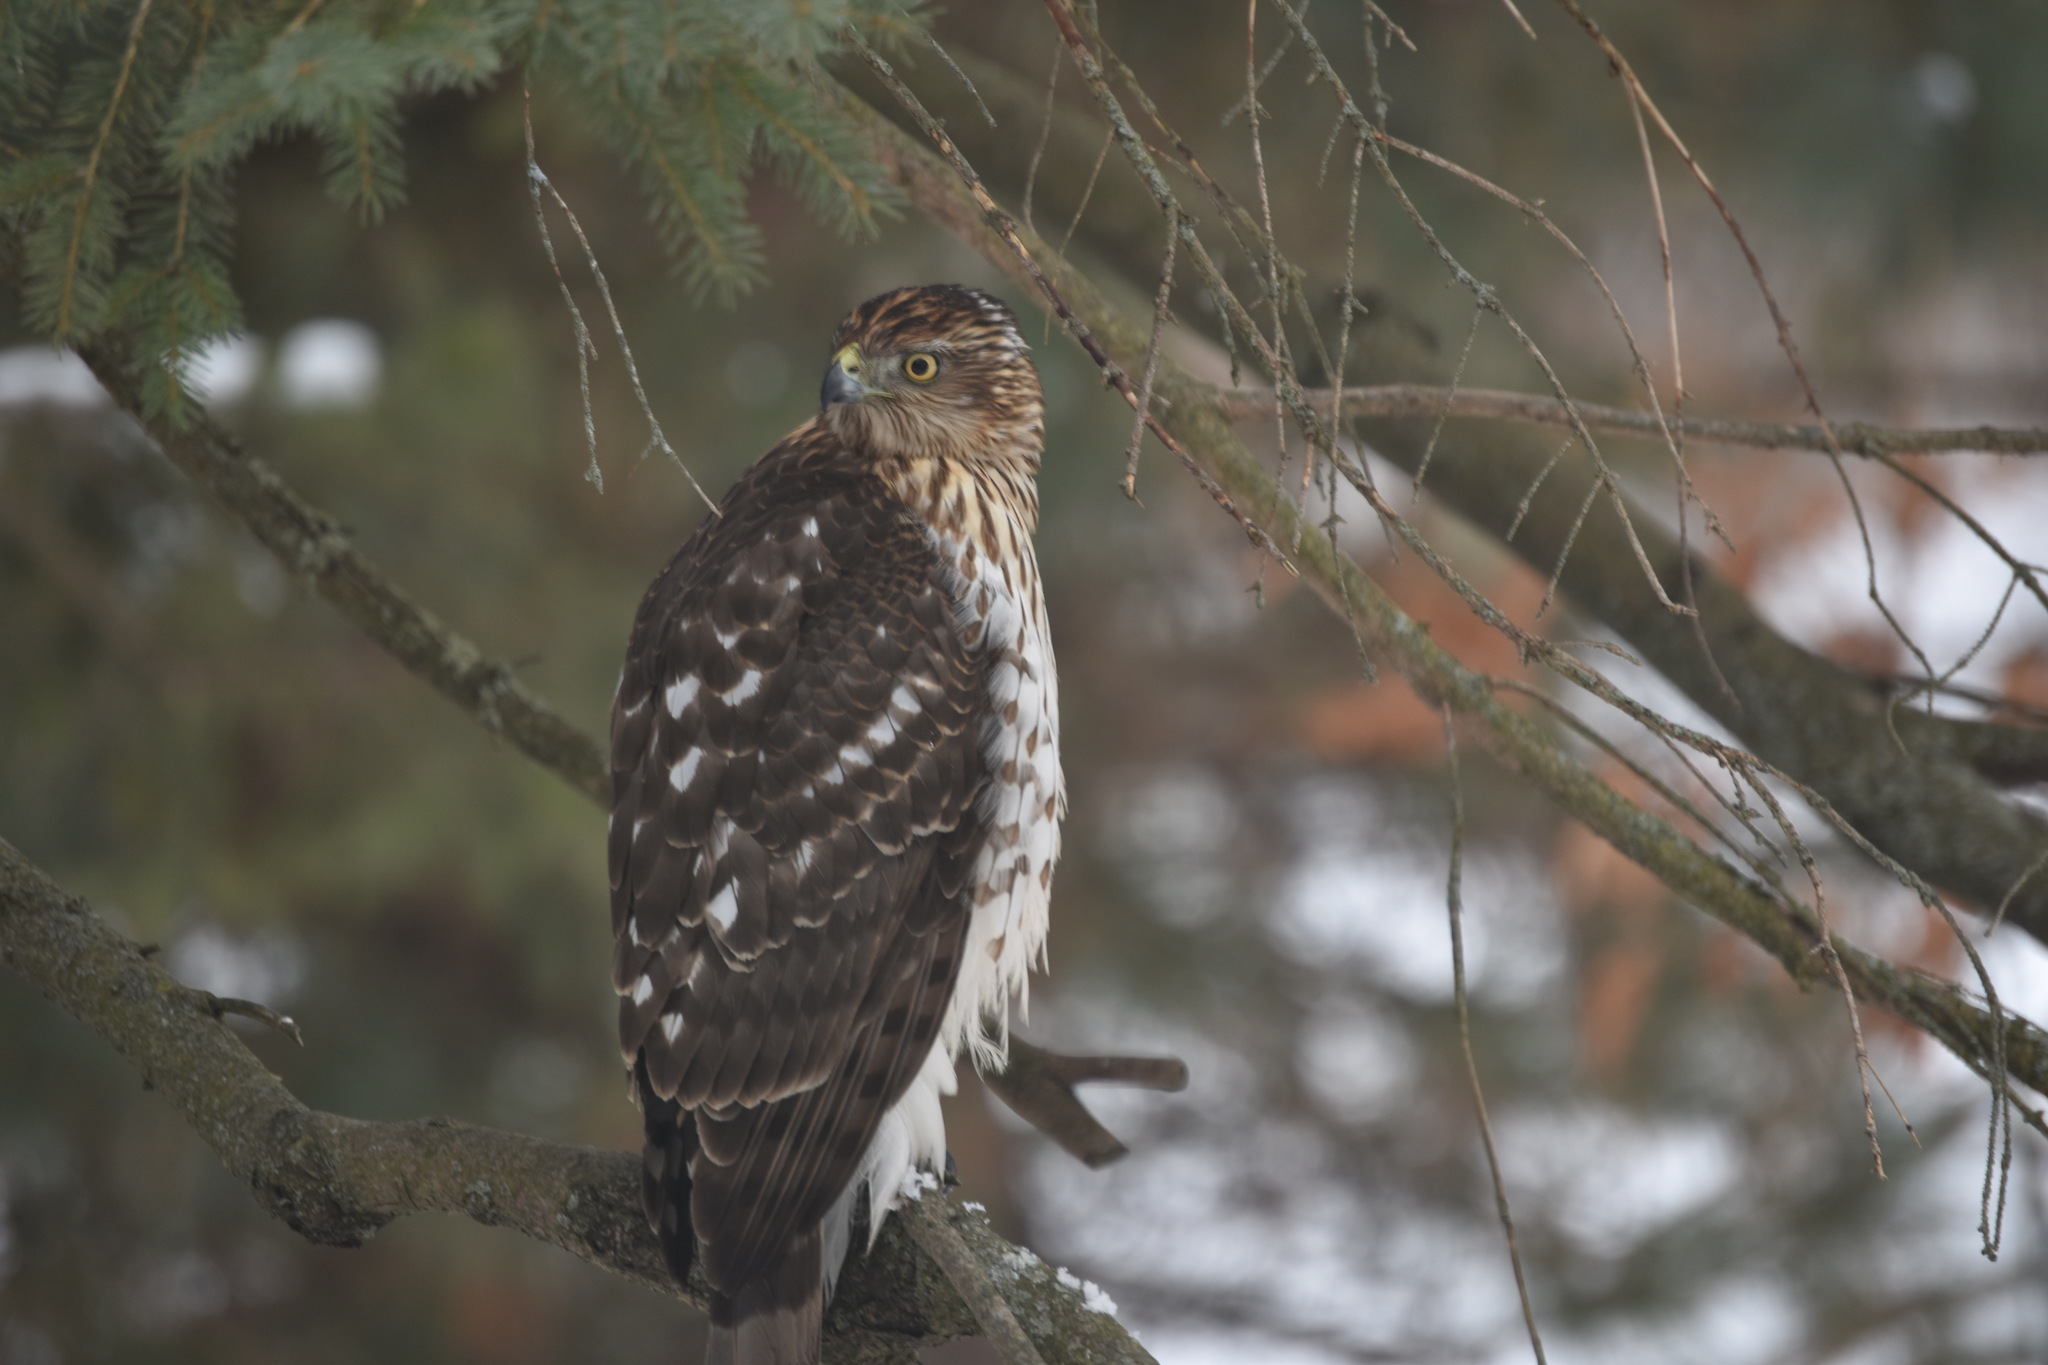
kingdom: Animalia
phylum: Chordata
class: Aves
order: Accipitriformes
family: Accipitridae
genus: Accipiter
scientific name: Accipiter cooperii
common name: Cooper's hawk
